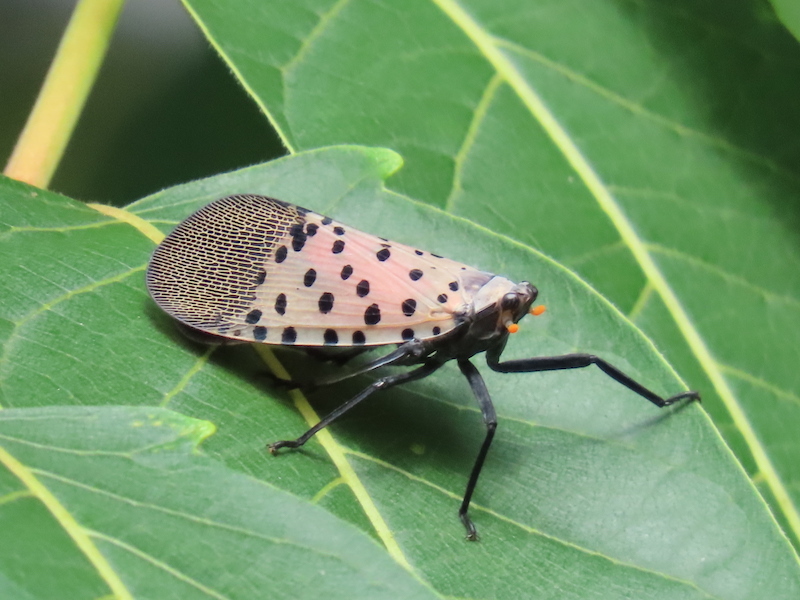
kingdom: Animalia
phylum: Arthropoda
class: Insecta
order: Hemiptera
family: Fulgoridae
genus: Lycorma
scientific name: Lycorma delicatula
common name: Spotted lanternfly
